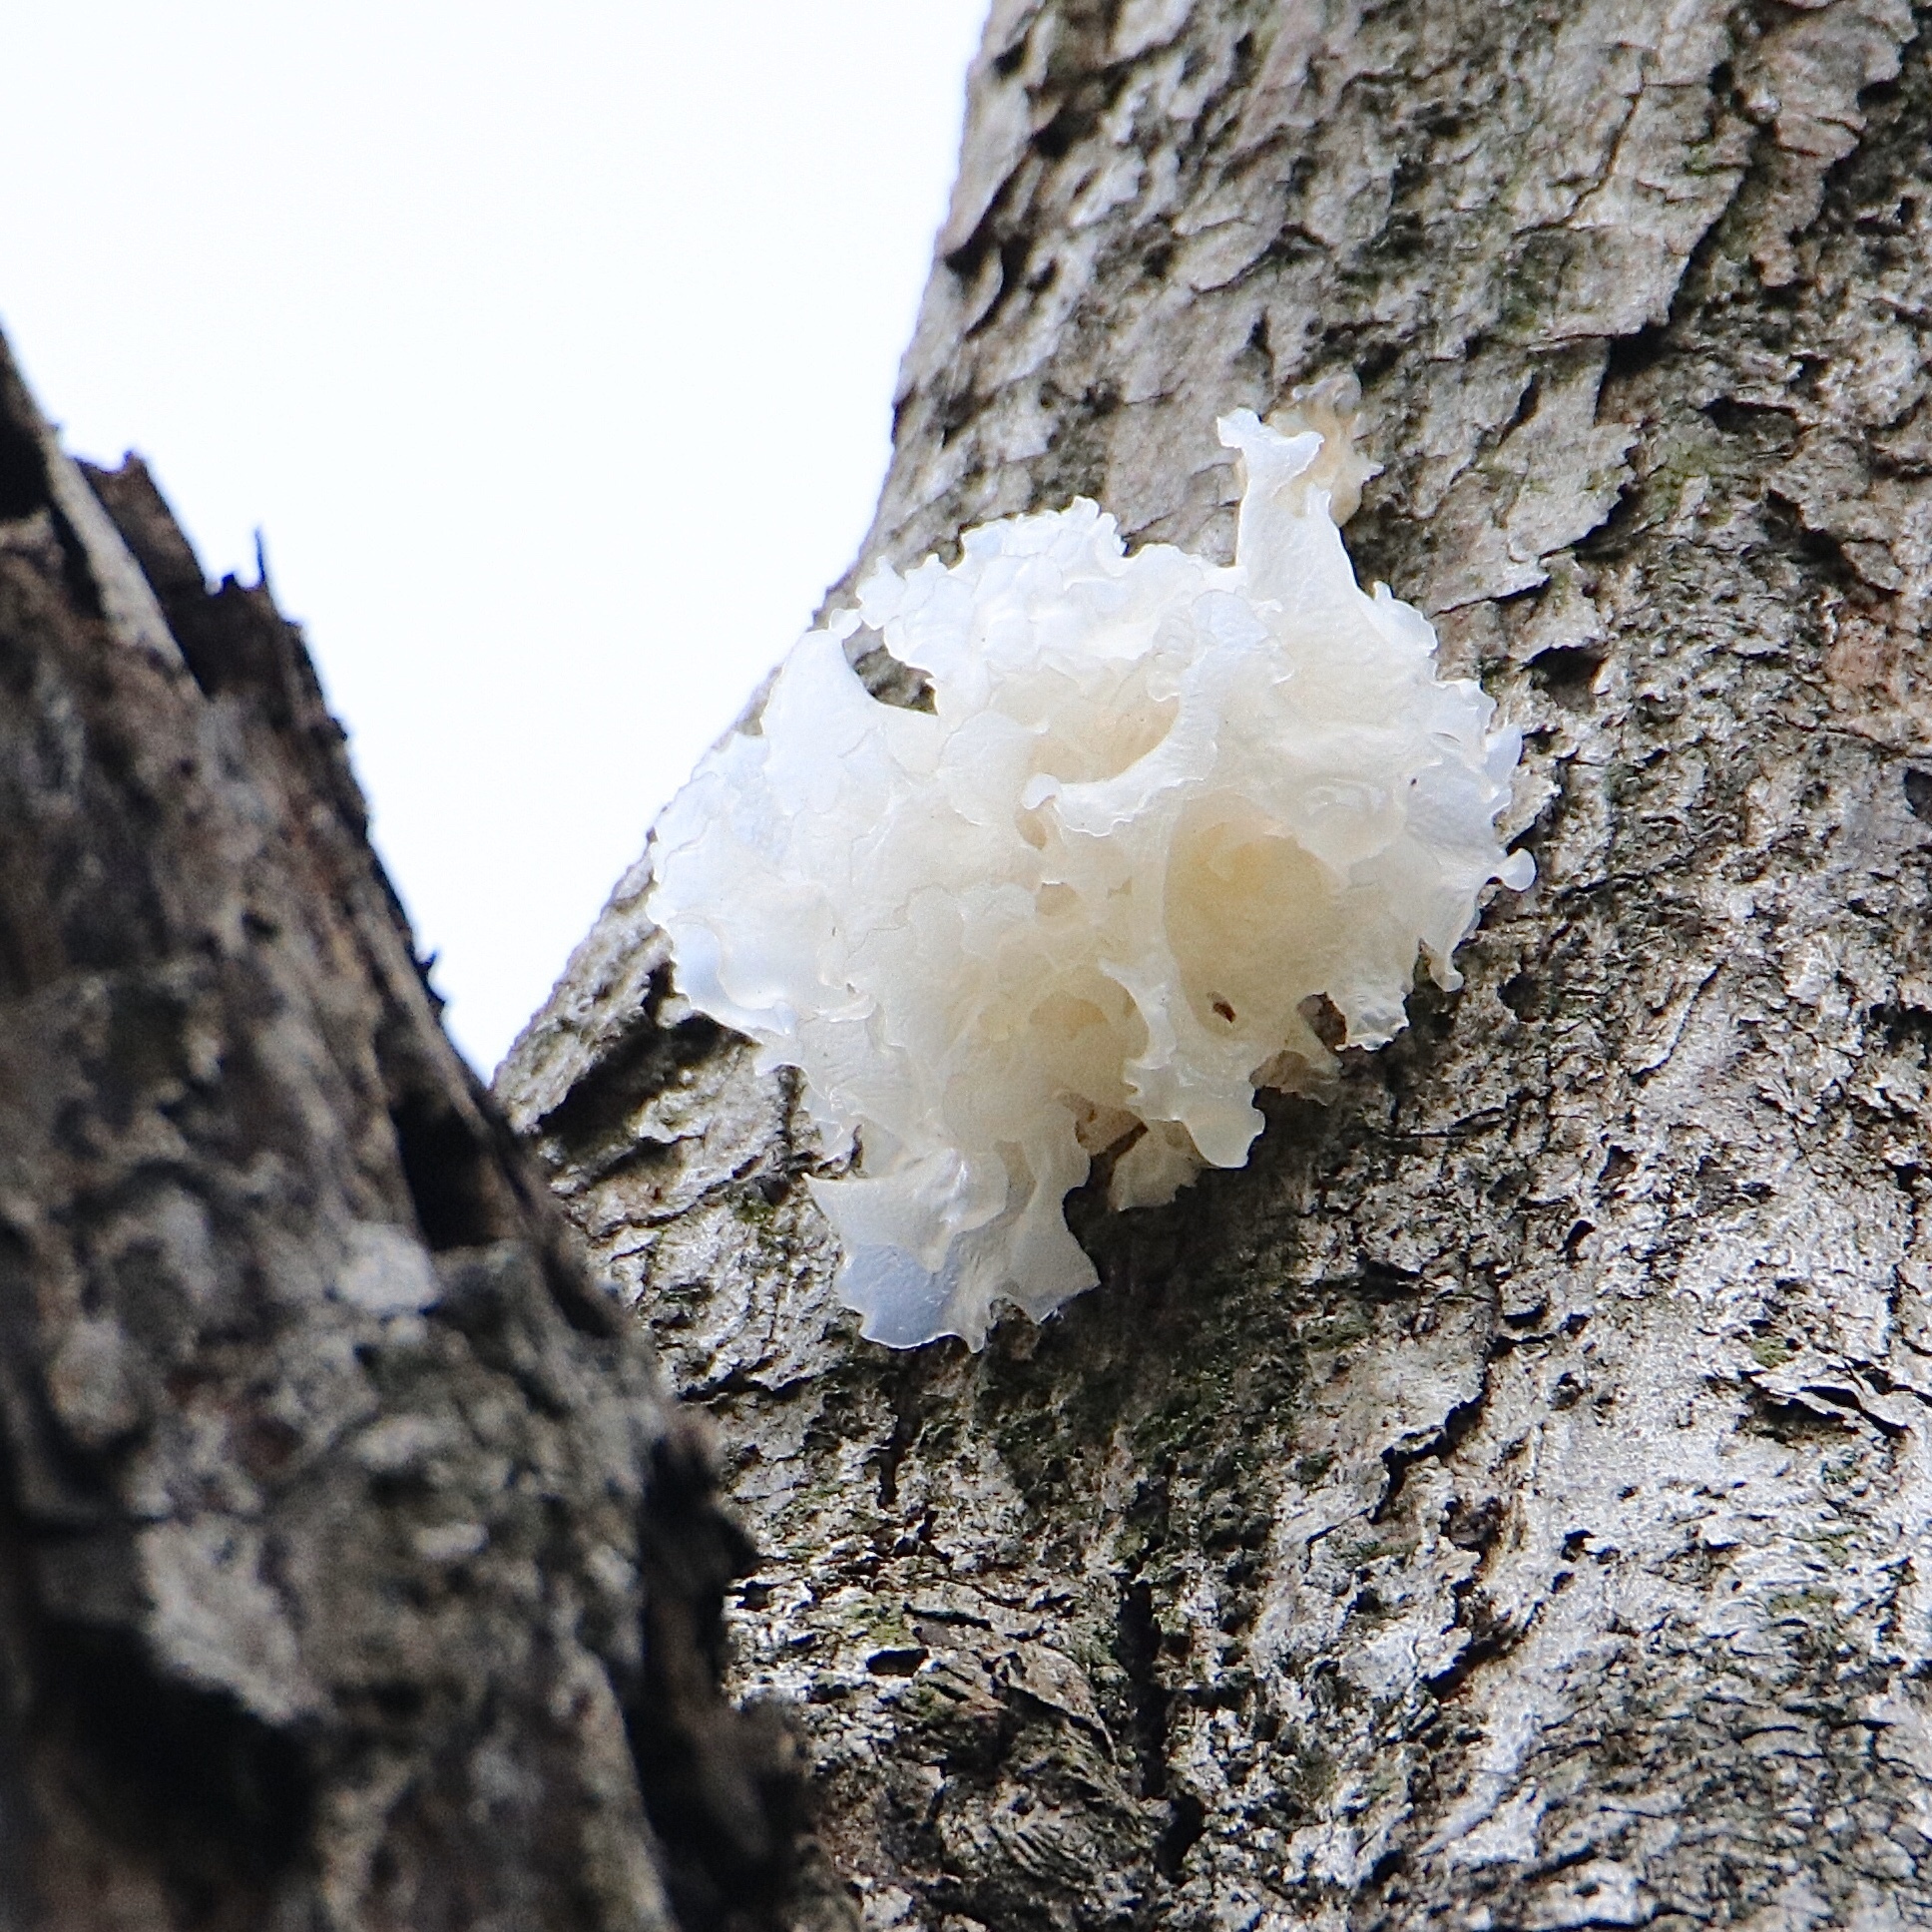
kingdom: Fungi
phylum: Basidiomycota
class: Tremellomycetes
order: Tremellales
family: Tremellaceae
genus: Tremella
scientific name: Tremella fuciformis
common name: Snow fungus
